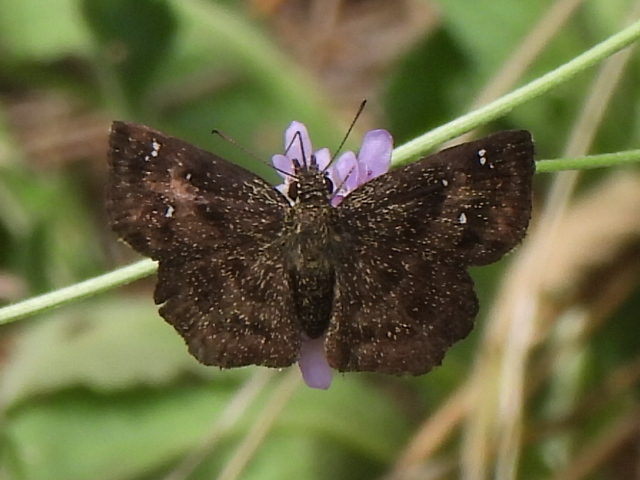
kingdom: Animalia
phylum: Arthropoda
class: Insecta
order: Lepidoptera
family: Hesperiidae
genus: Staphylus
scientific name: Staphylus mazans
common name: Mazans scallopwing
